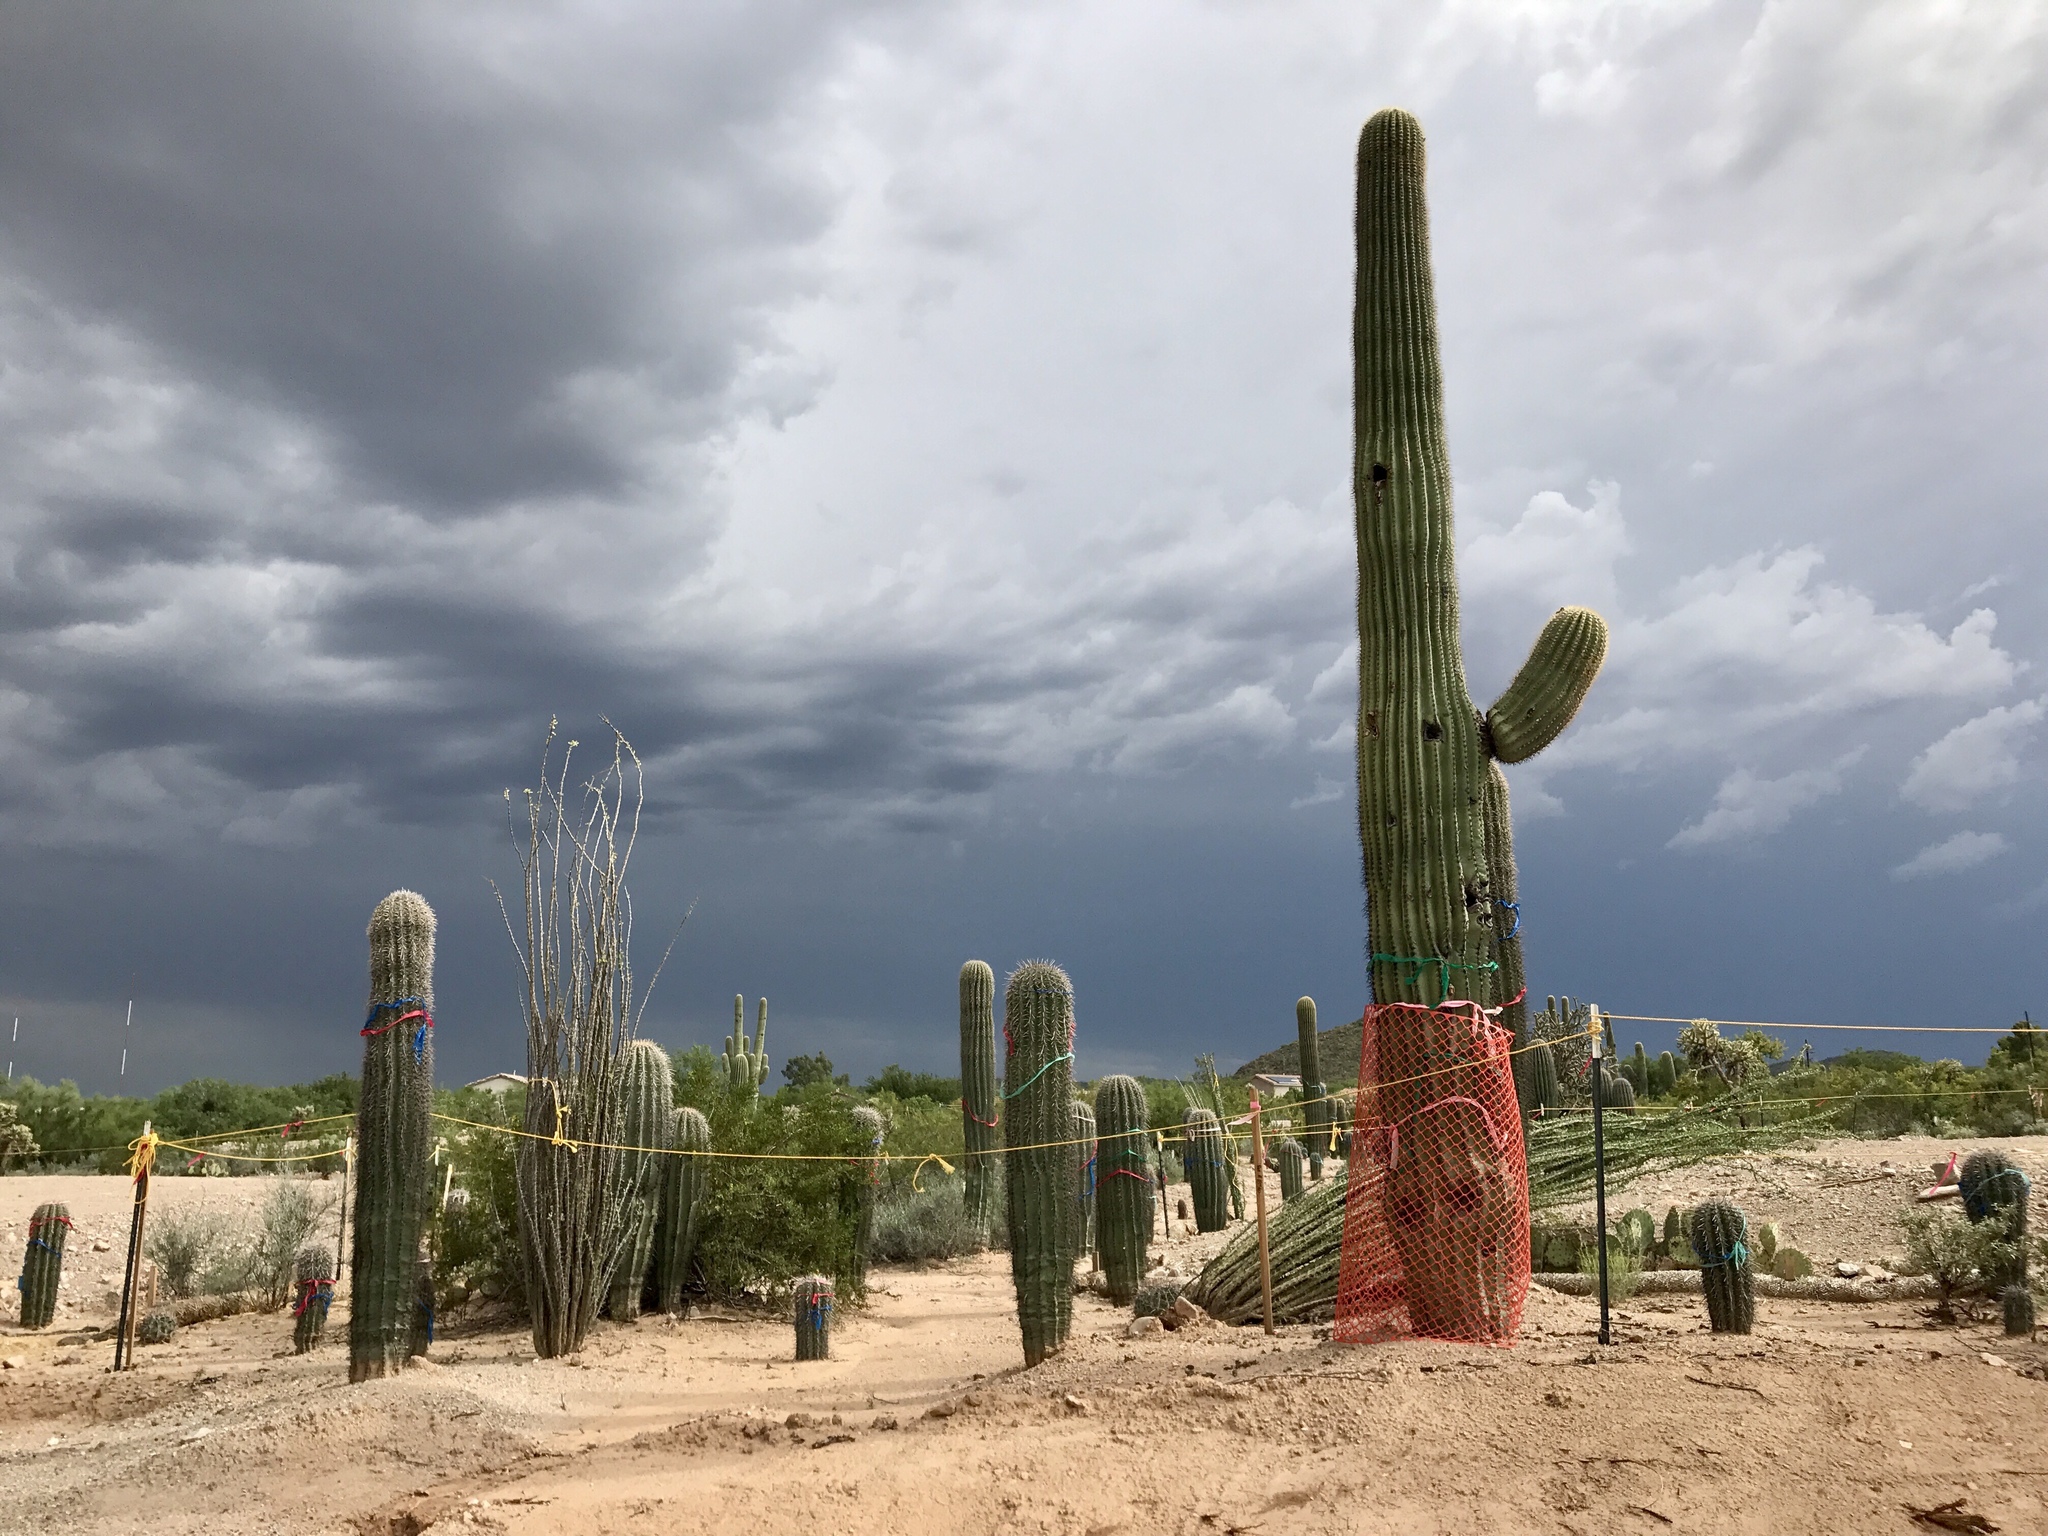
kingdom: Plantae
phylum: Tracheophyta
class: Magnoliopsida
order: Caryophyllales
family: Cactaceae
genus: Carnegiea
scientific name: Carnegiea gigantea
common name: Saguaro
